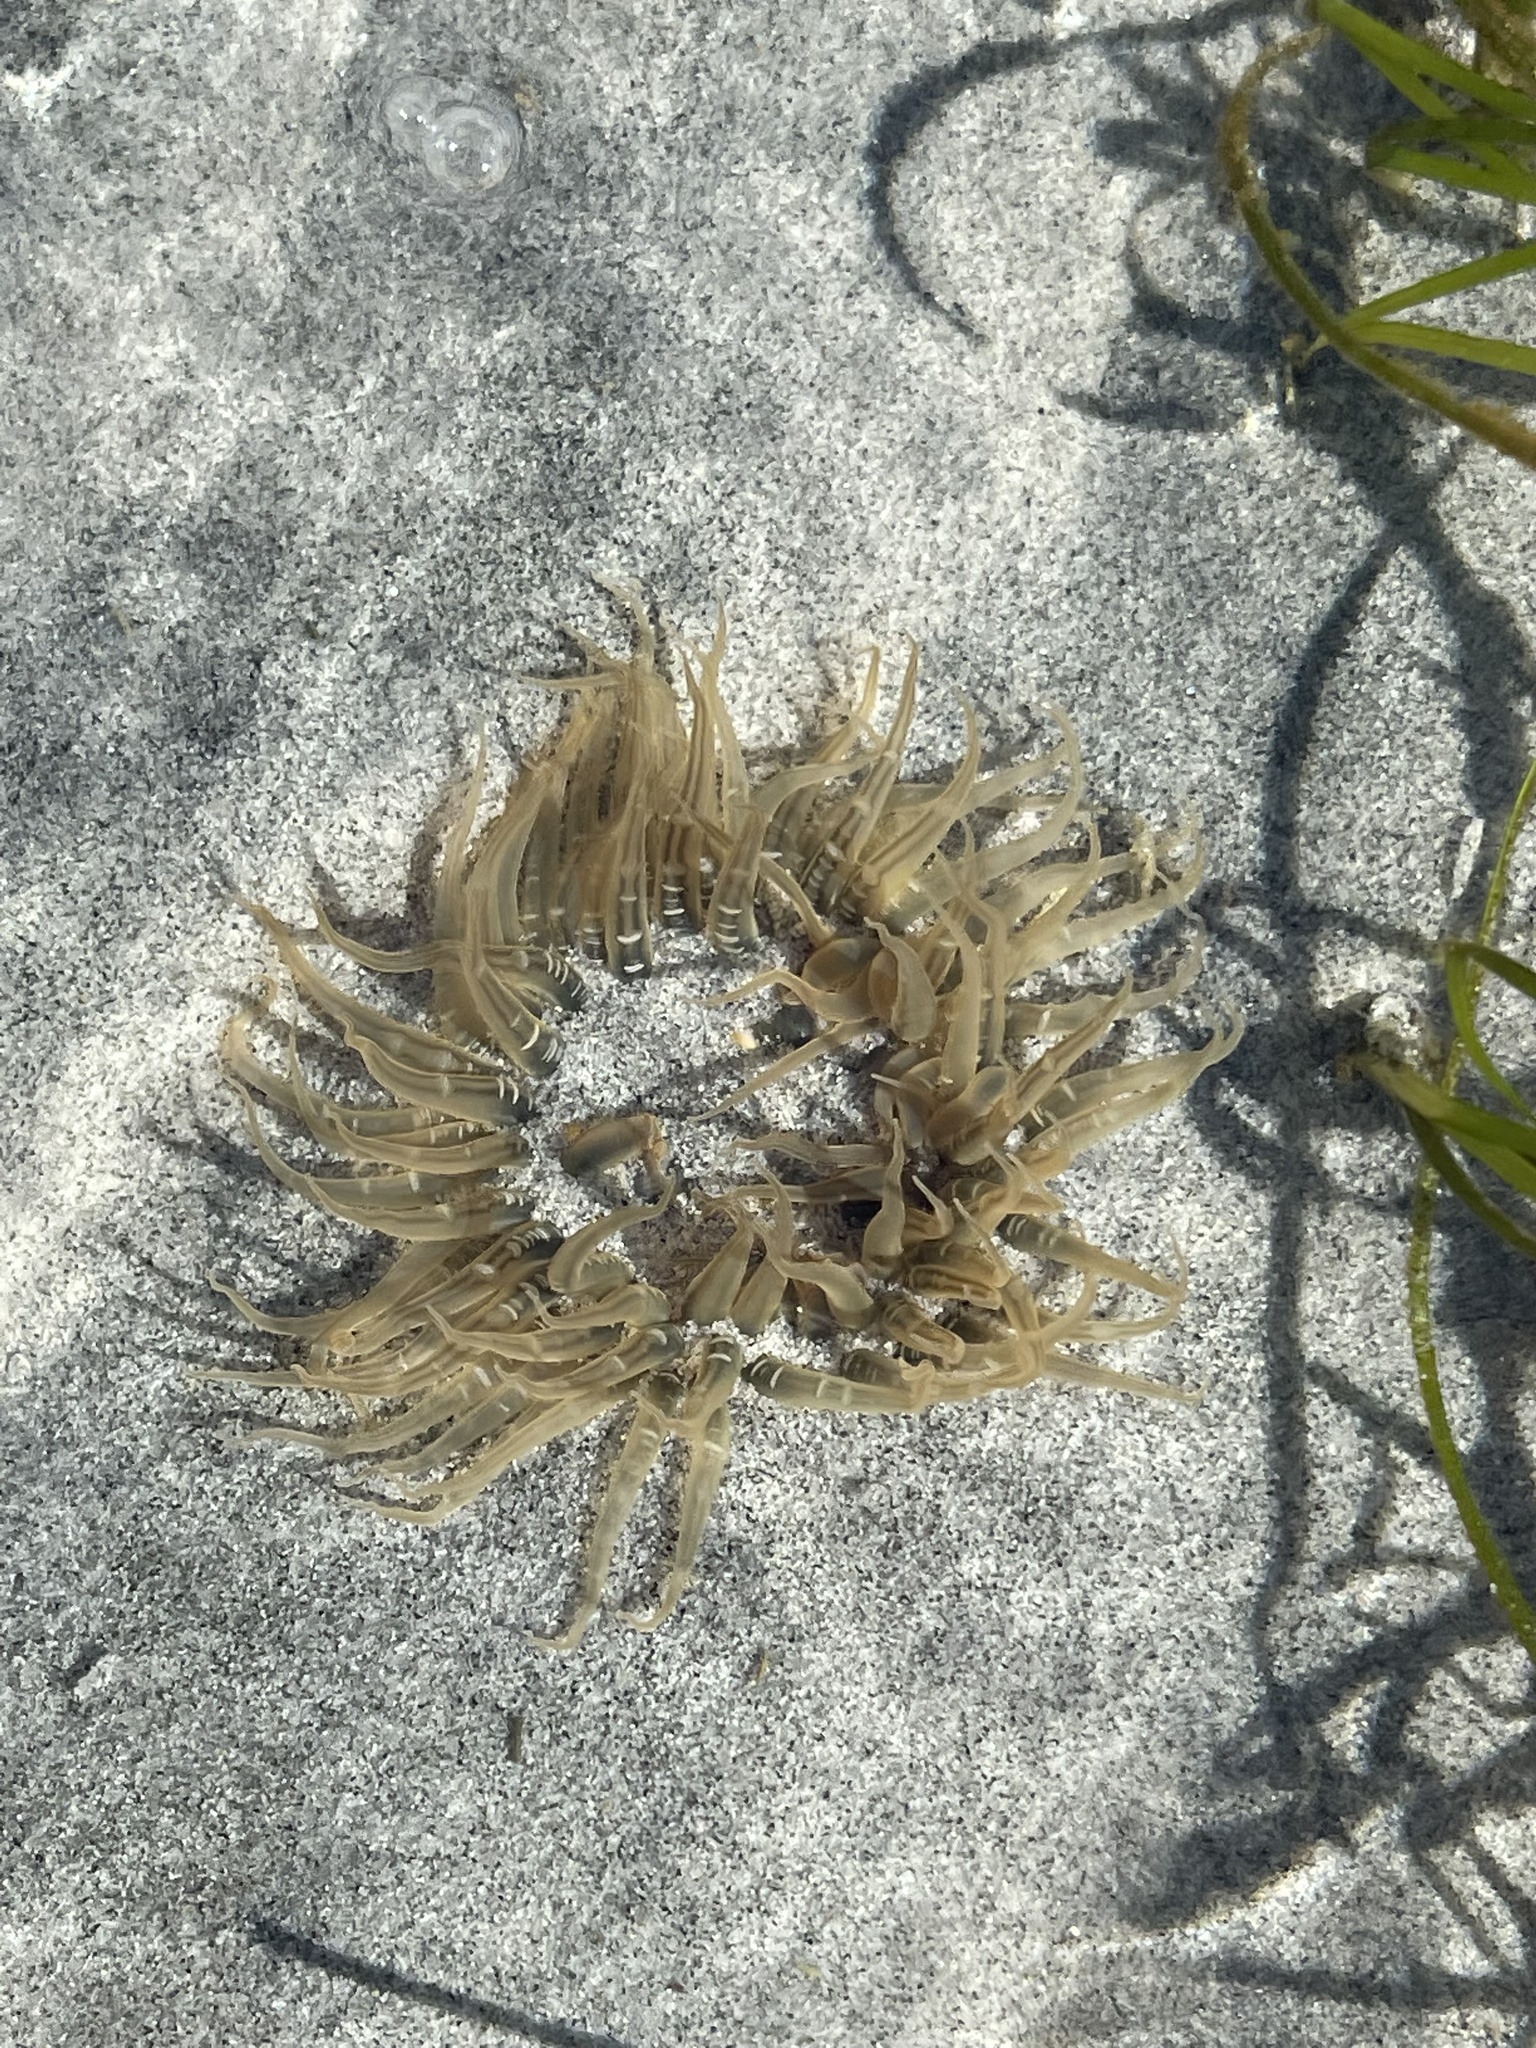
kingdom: Animalia
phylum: Cnidaria
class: Anthozoa
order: Actiniaria
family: Actiniidae
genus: Anthopleura
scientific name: Anthopleura artemisia
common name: Buried sea anemone
